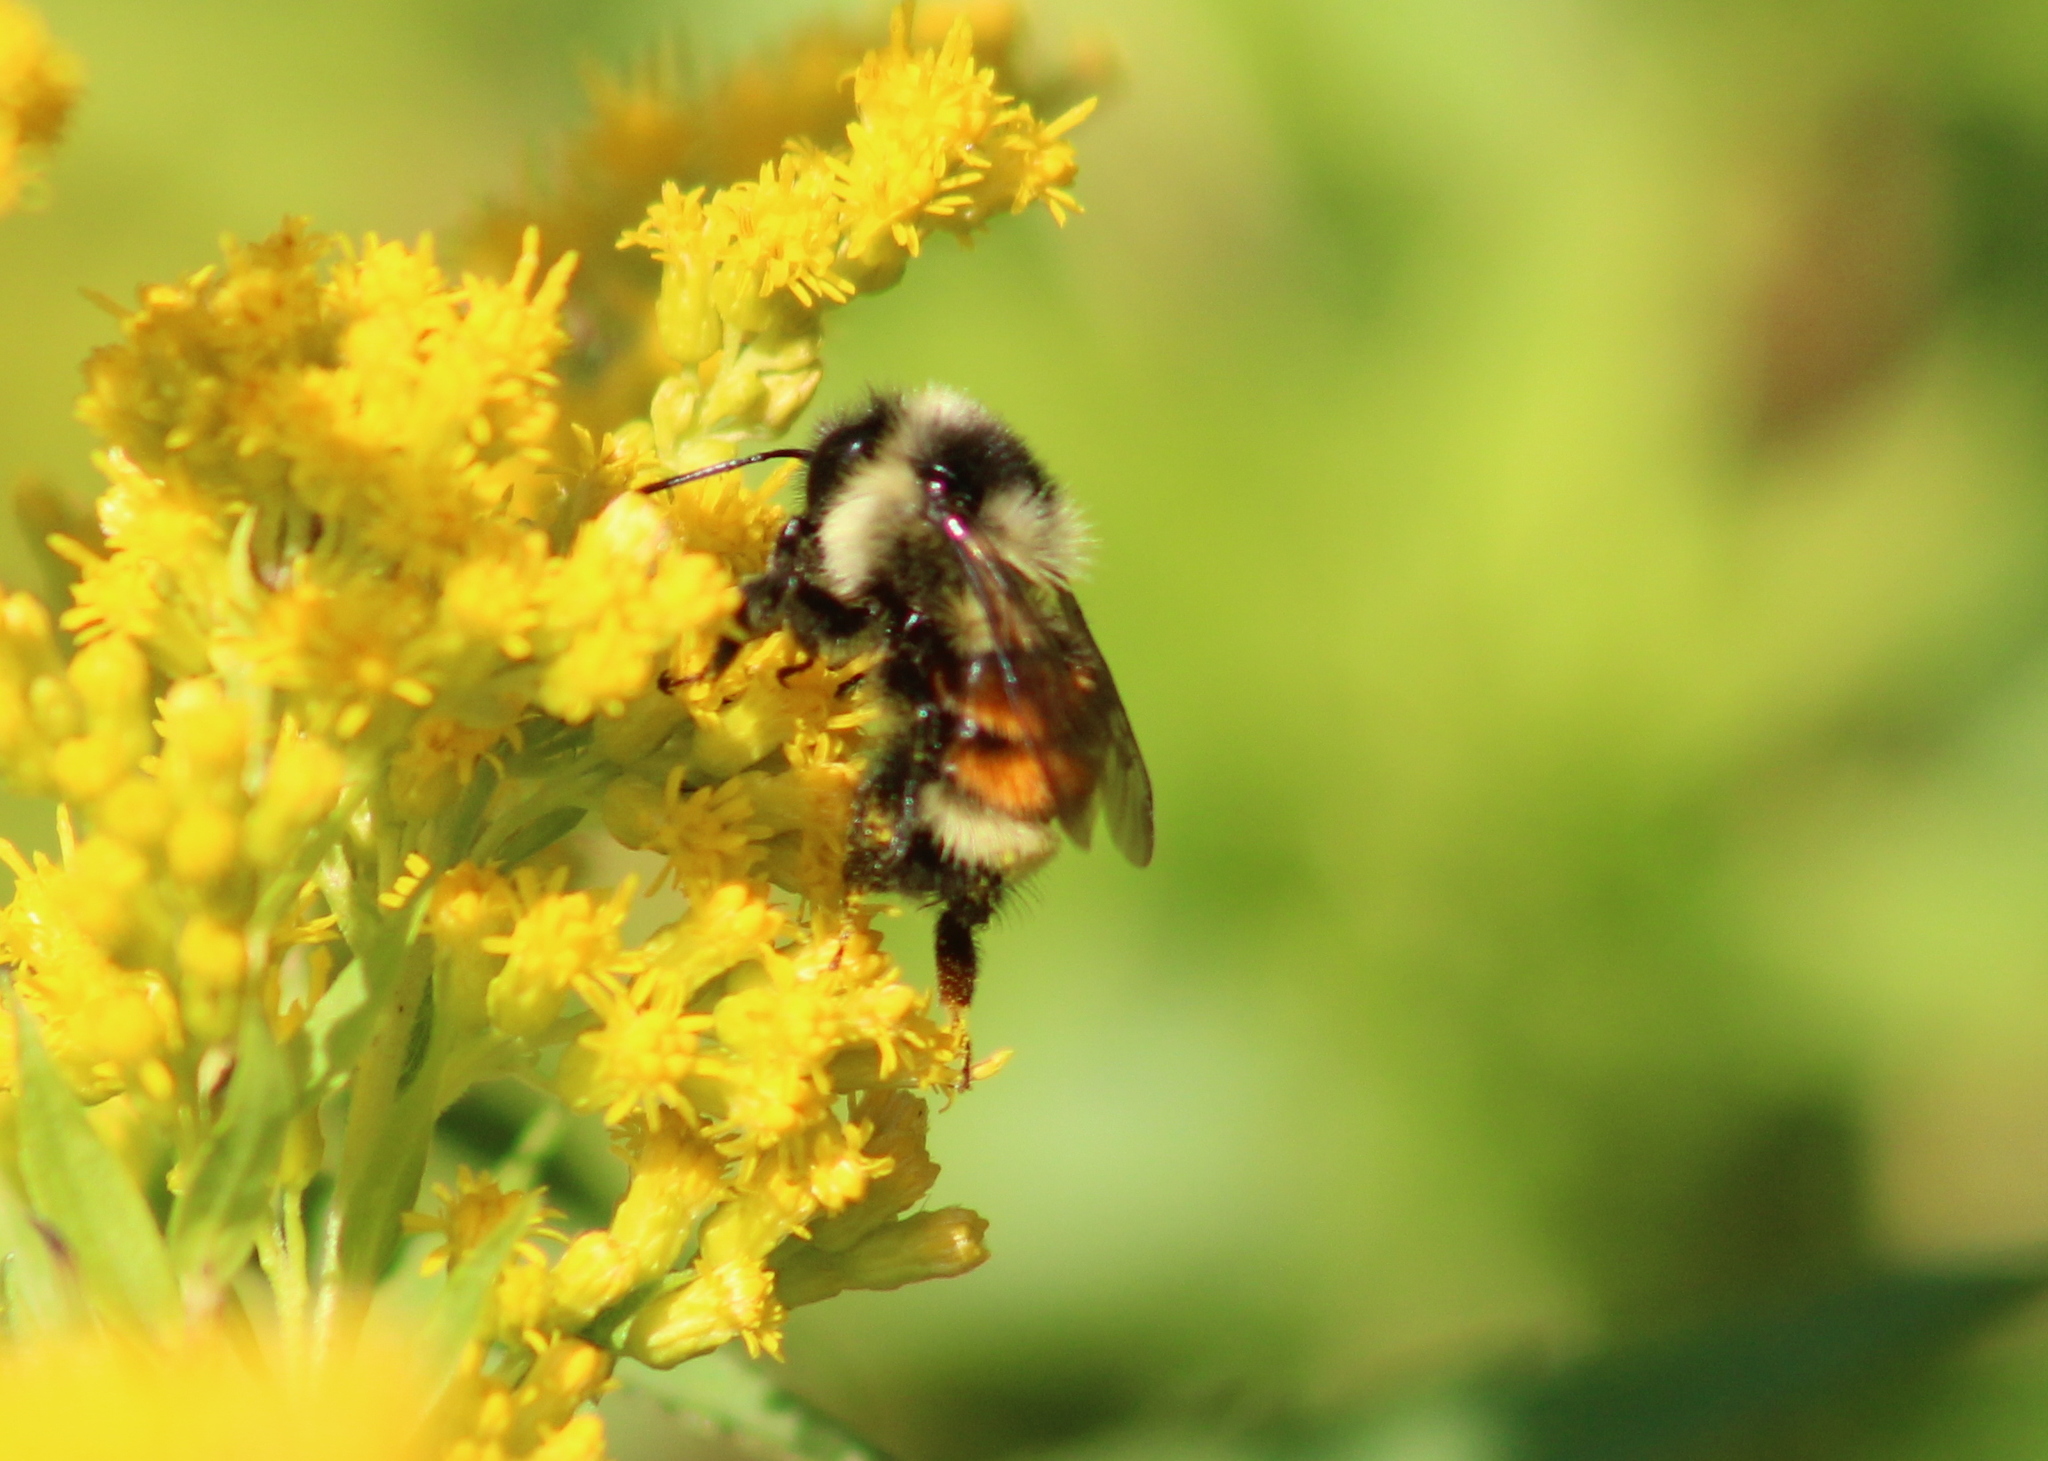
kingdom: Animalia
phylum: Arthropoda
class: Insecta
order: Hymenoptera
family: Apidae
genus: Bombus
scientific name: Bombus ternarius
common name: Tri-colored bumble bee
